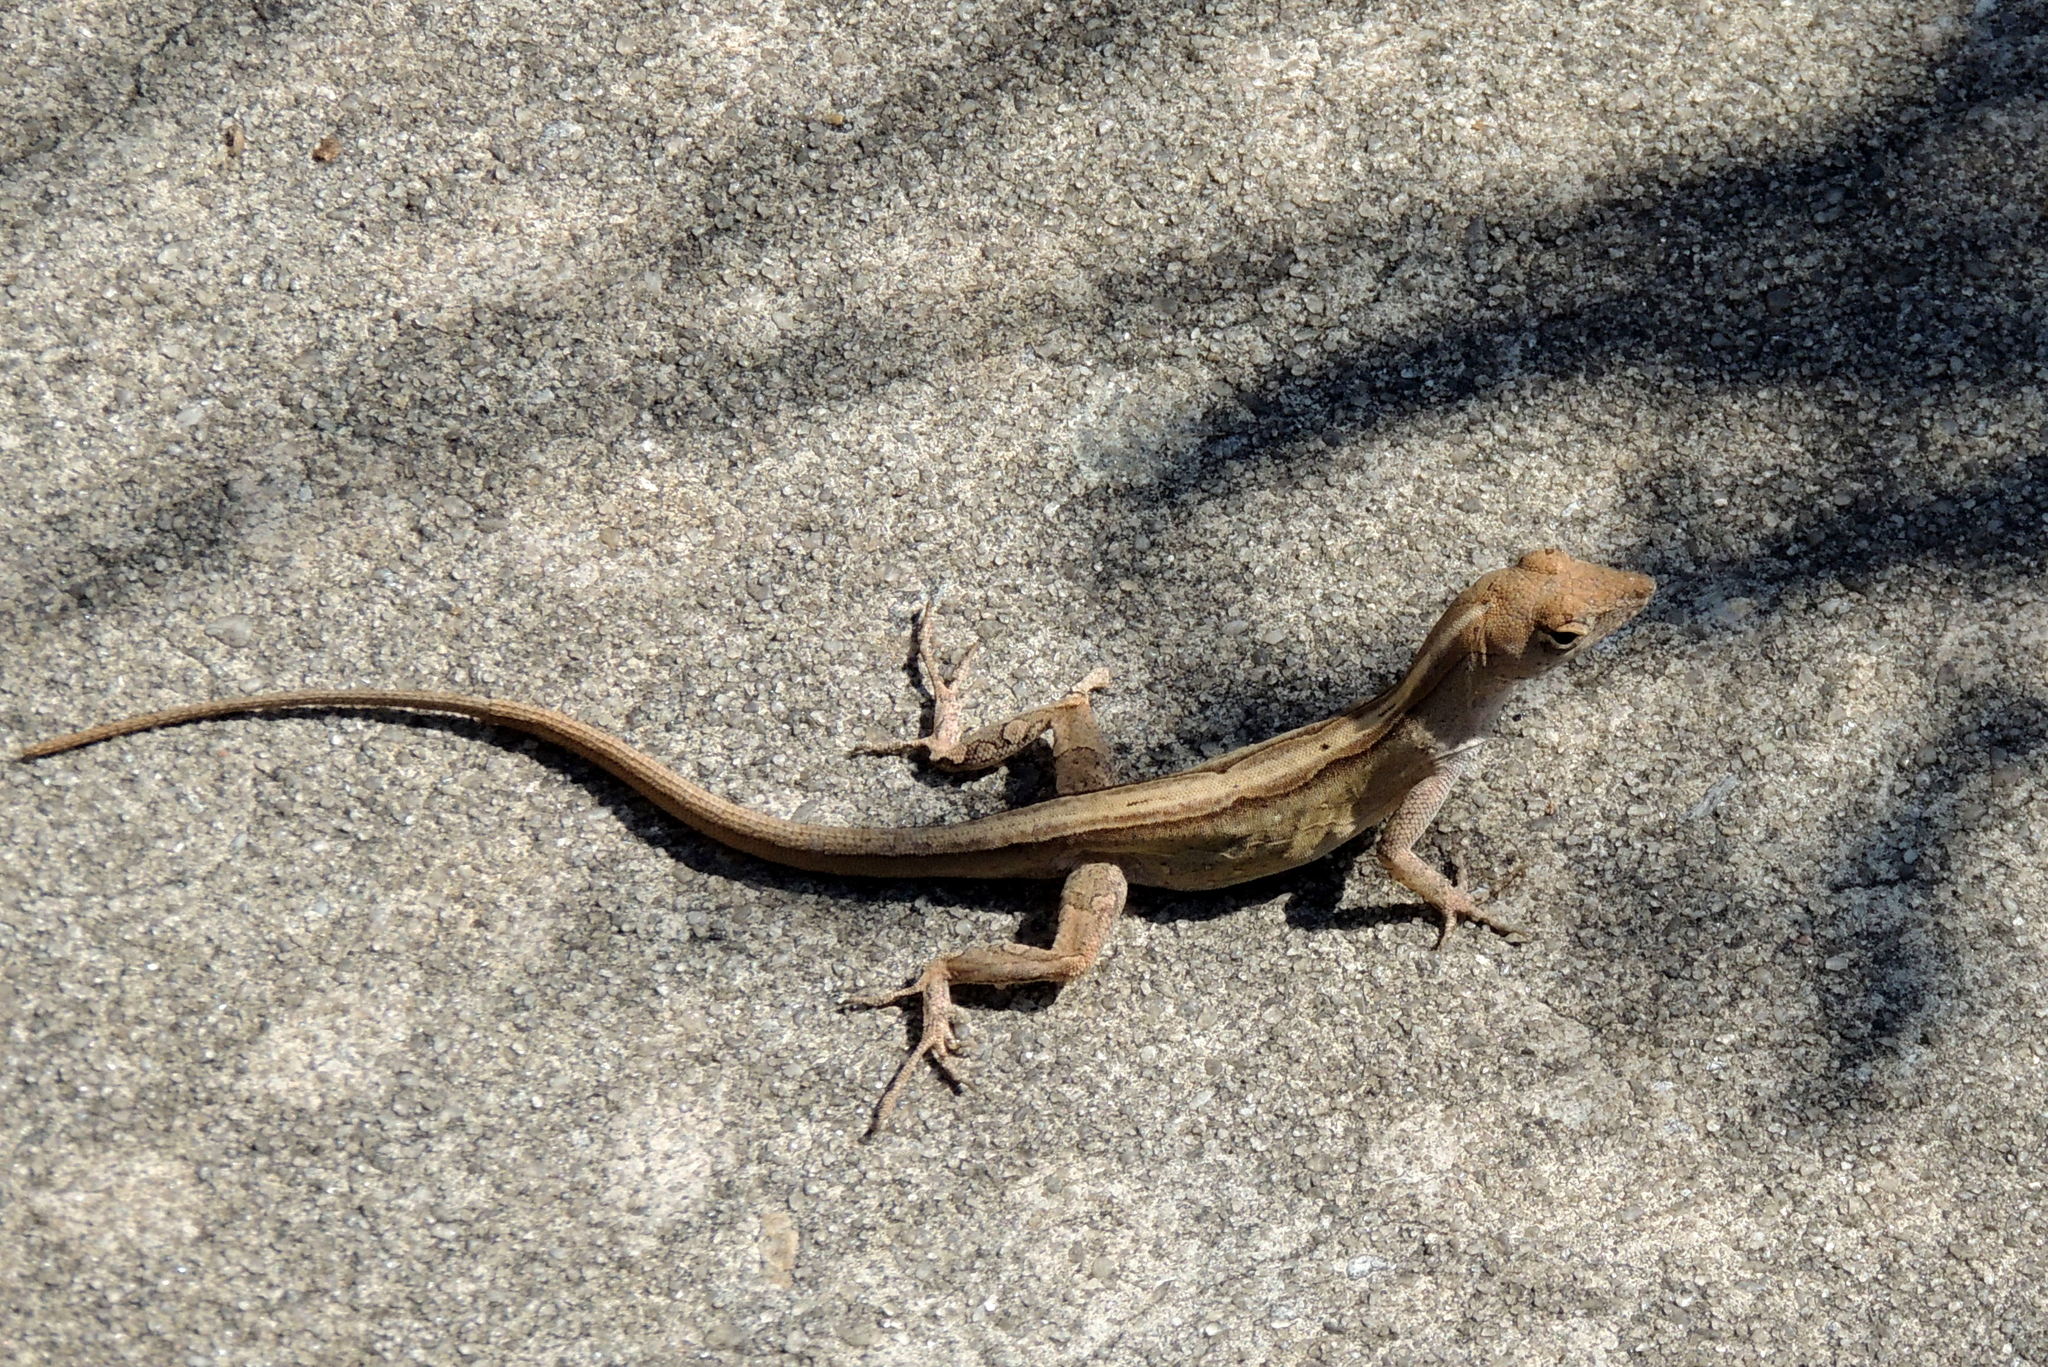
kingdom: Animalia
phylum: Chordata
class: Squamata
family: Dactyloidae
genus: Anolis
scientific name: Anolis sagrei
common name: Brown anole
